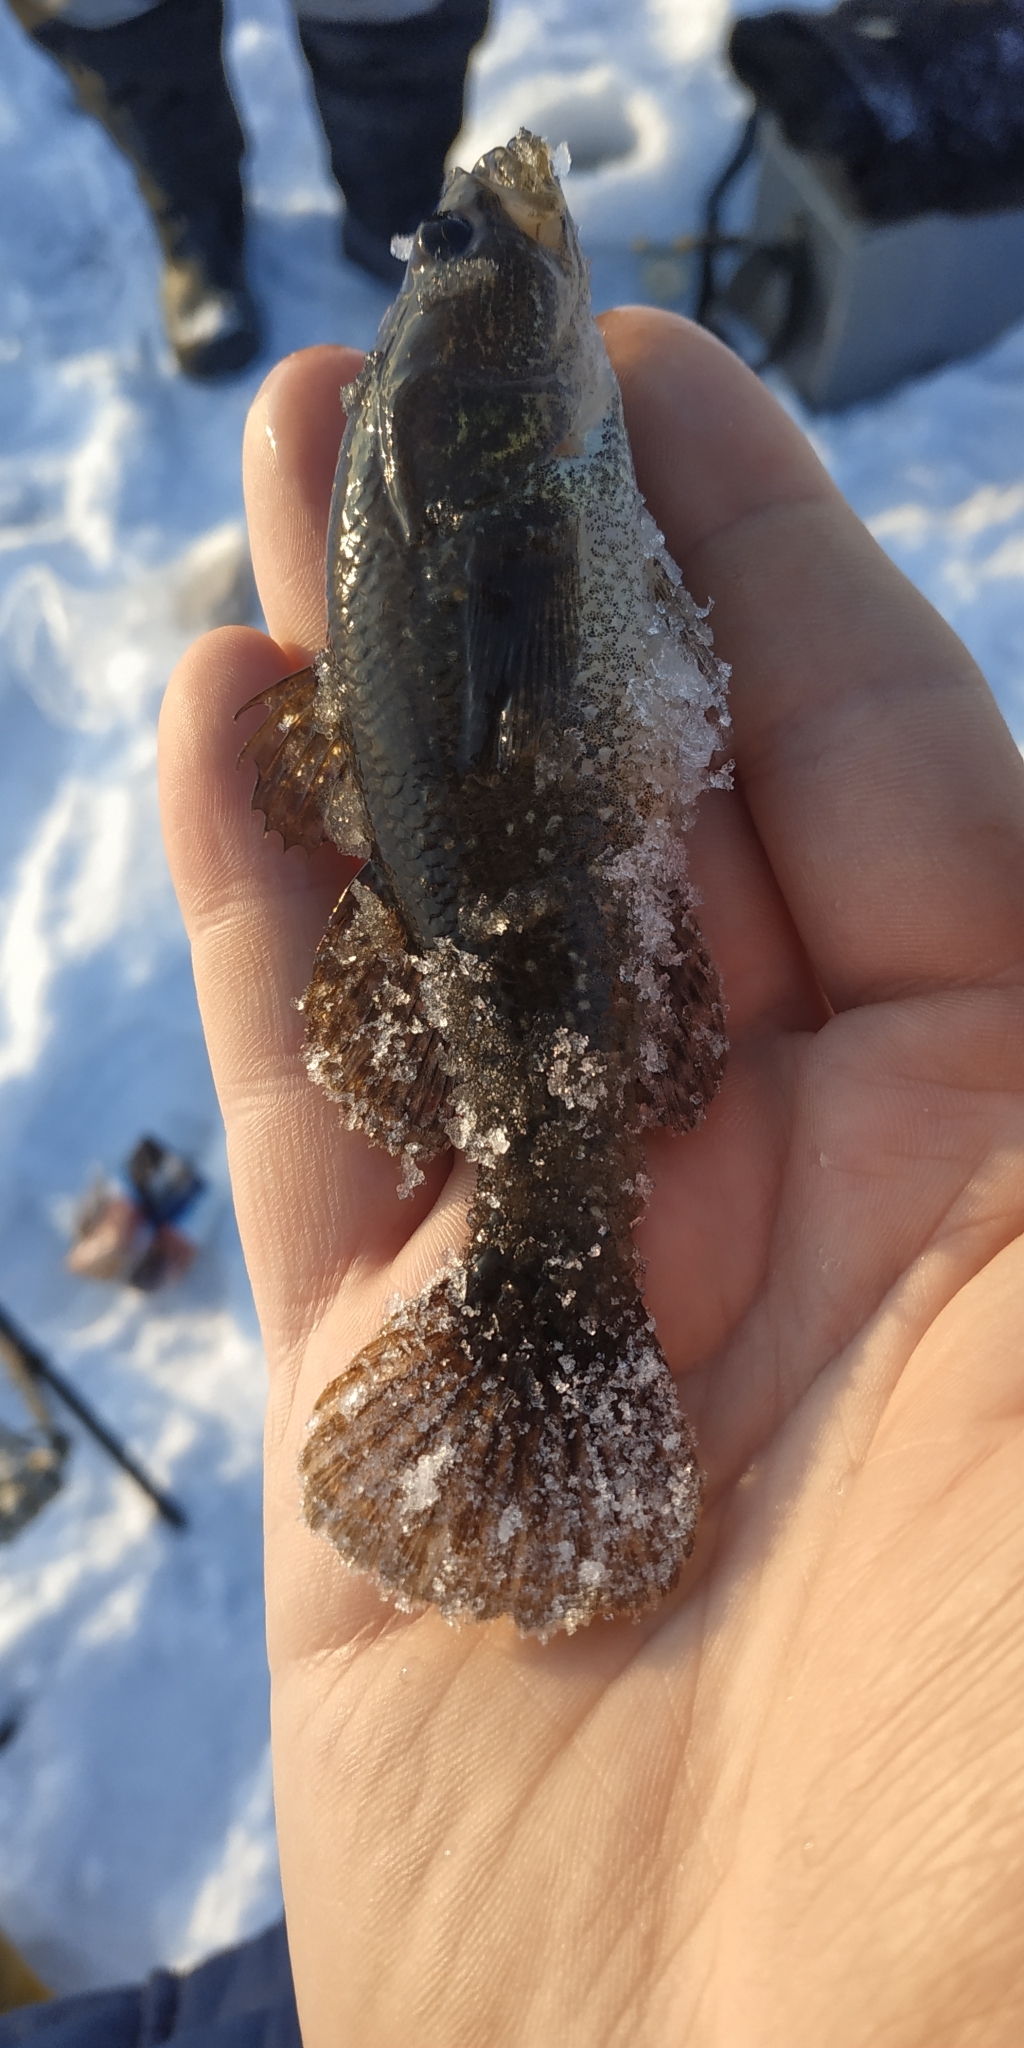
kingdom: Animalia
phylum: Chordata
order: Perciformes
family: Odontobutidae
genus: Perccottus
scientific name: Perccottus glenii
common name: Amur sleeper
